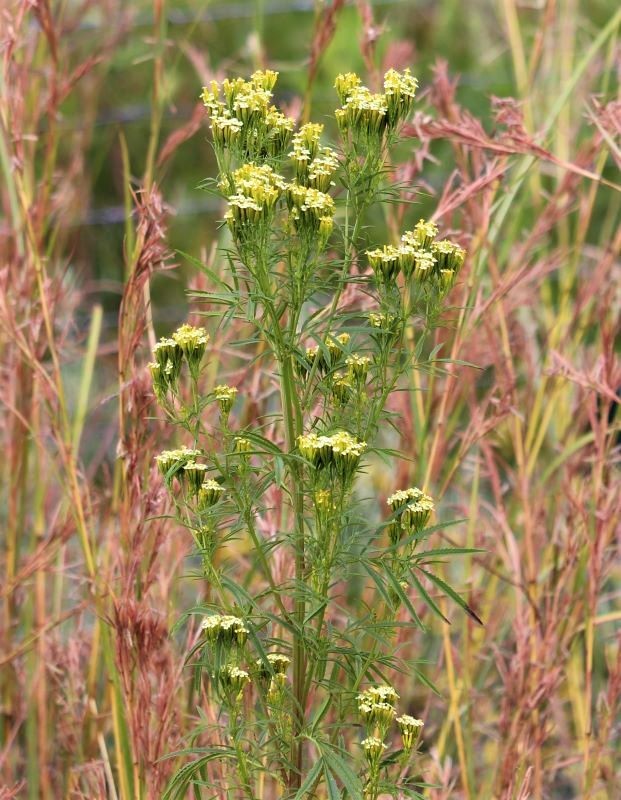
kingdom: Plantae
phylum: Tracheophyta
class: Magnoliopsida
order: Asterales
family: Asteraceae
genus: Tagetes
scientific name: Tagetes minuta
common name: Muster john henry
